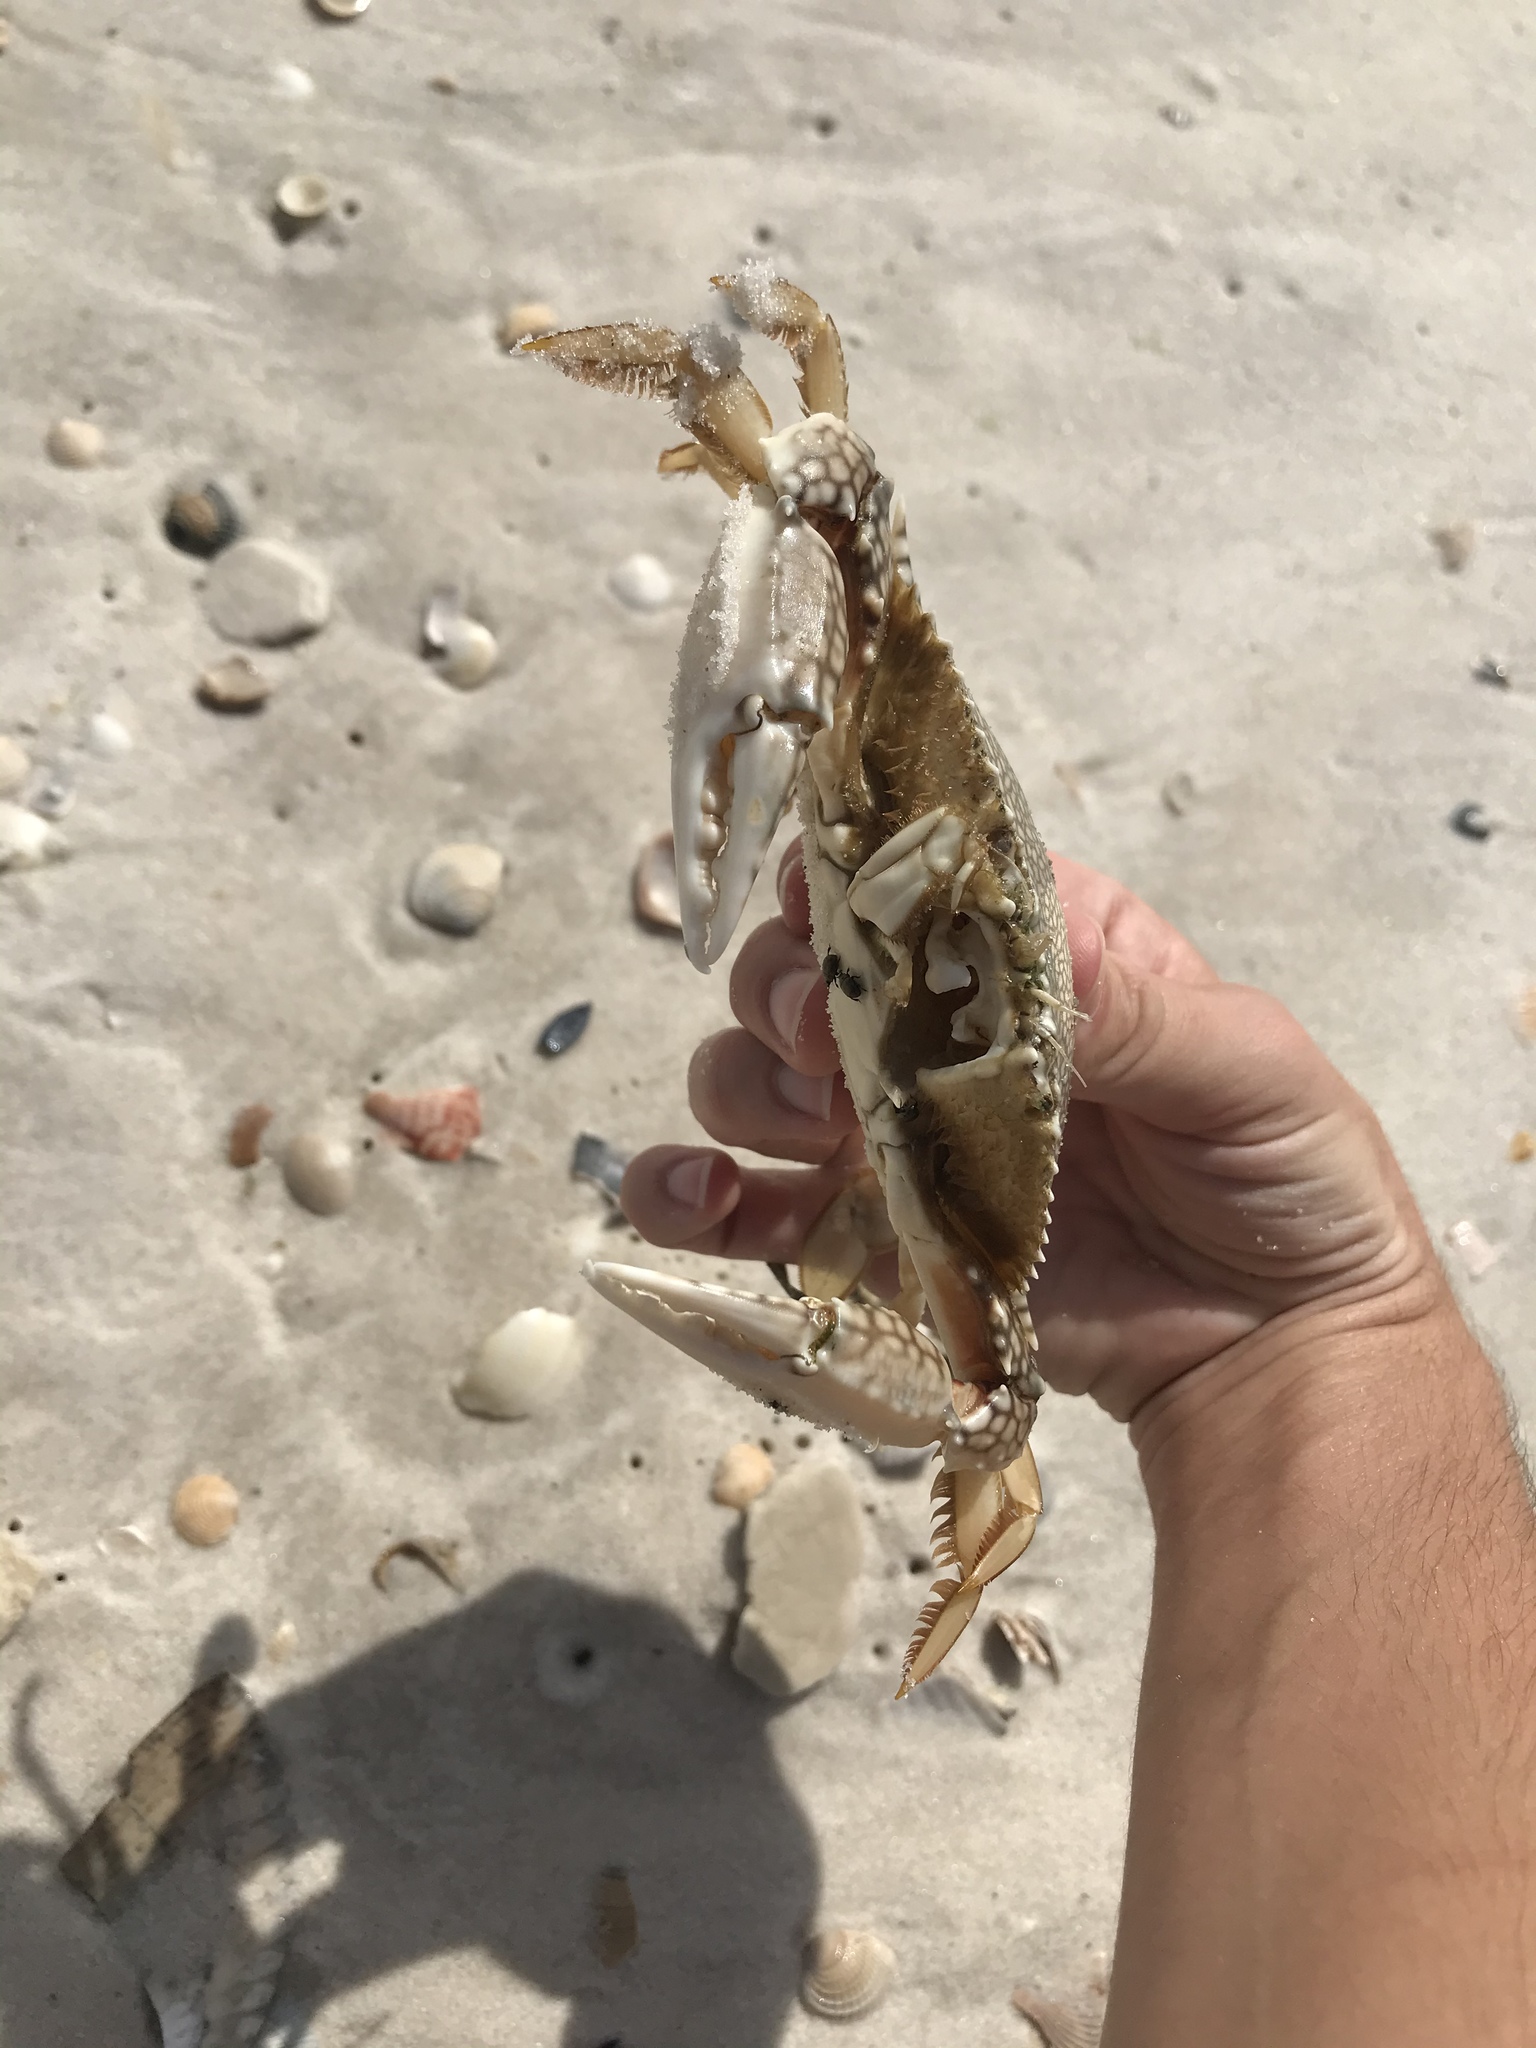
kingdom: Animalia
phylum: Arthropoda
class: Malacostraca
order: Decapoda
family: Portunidae
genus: Arenaeus
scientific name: Arenaeus cribrarius
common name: Speckled crab
